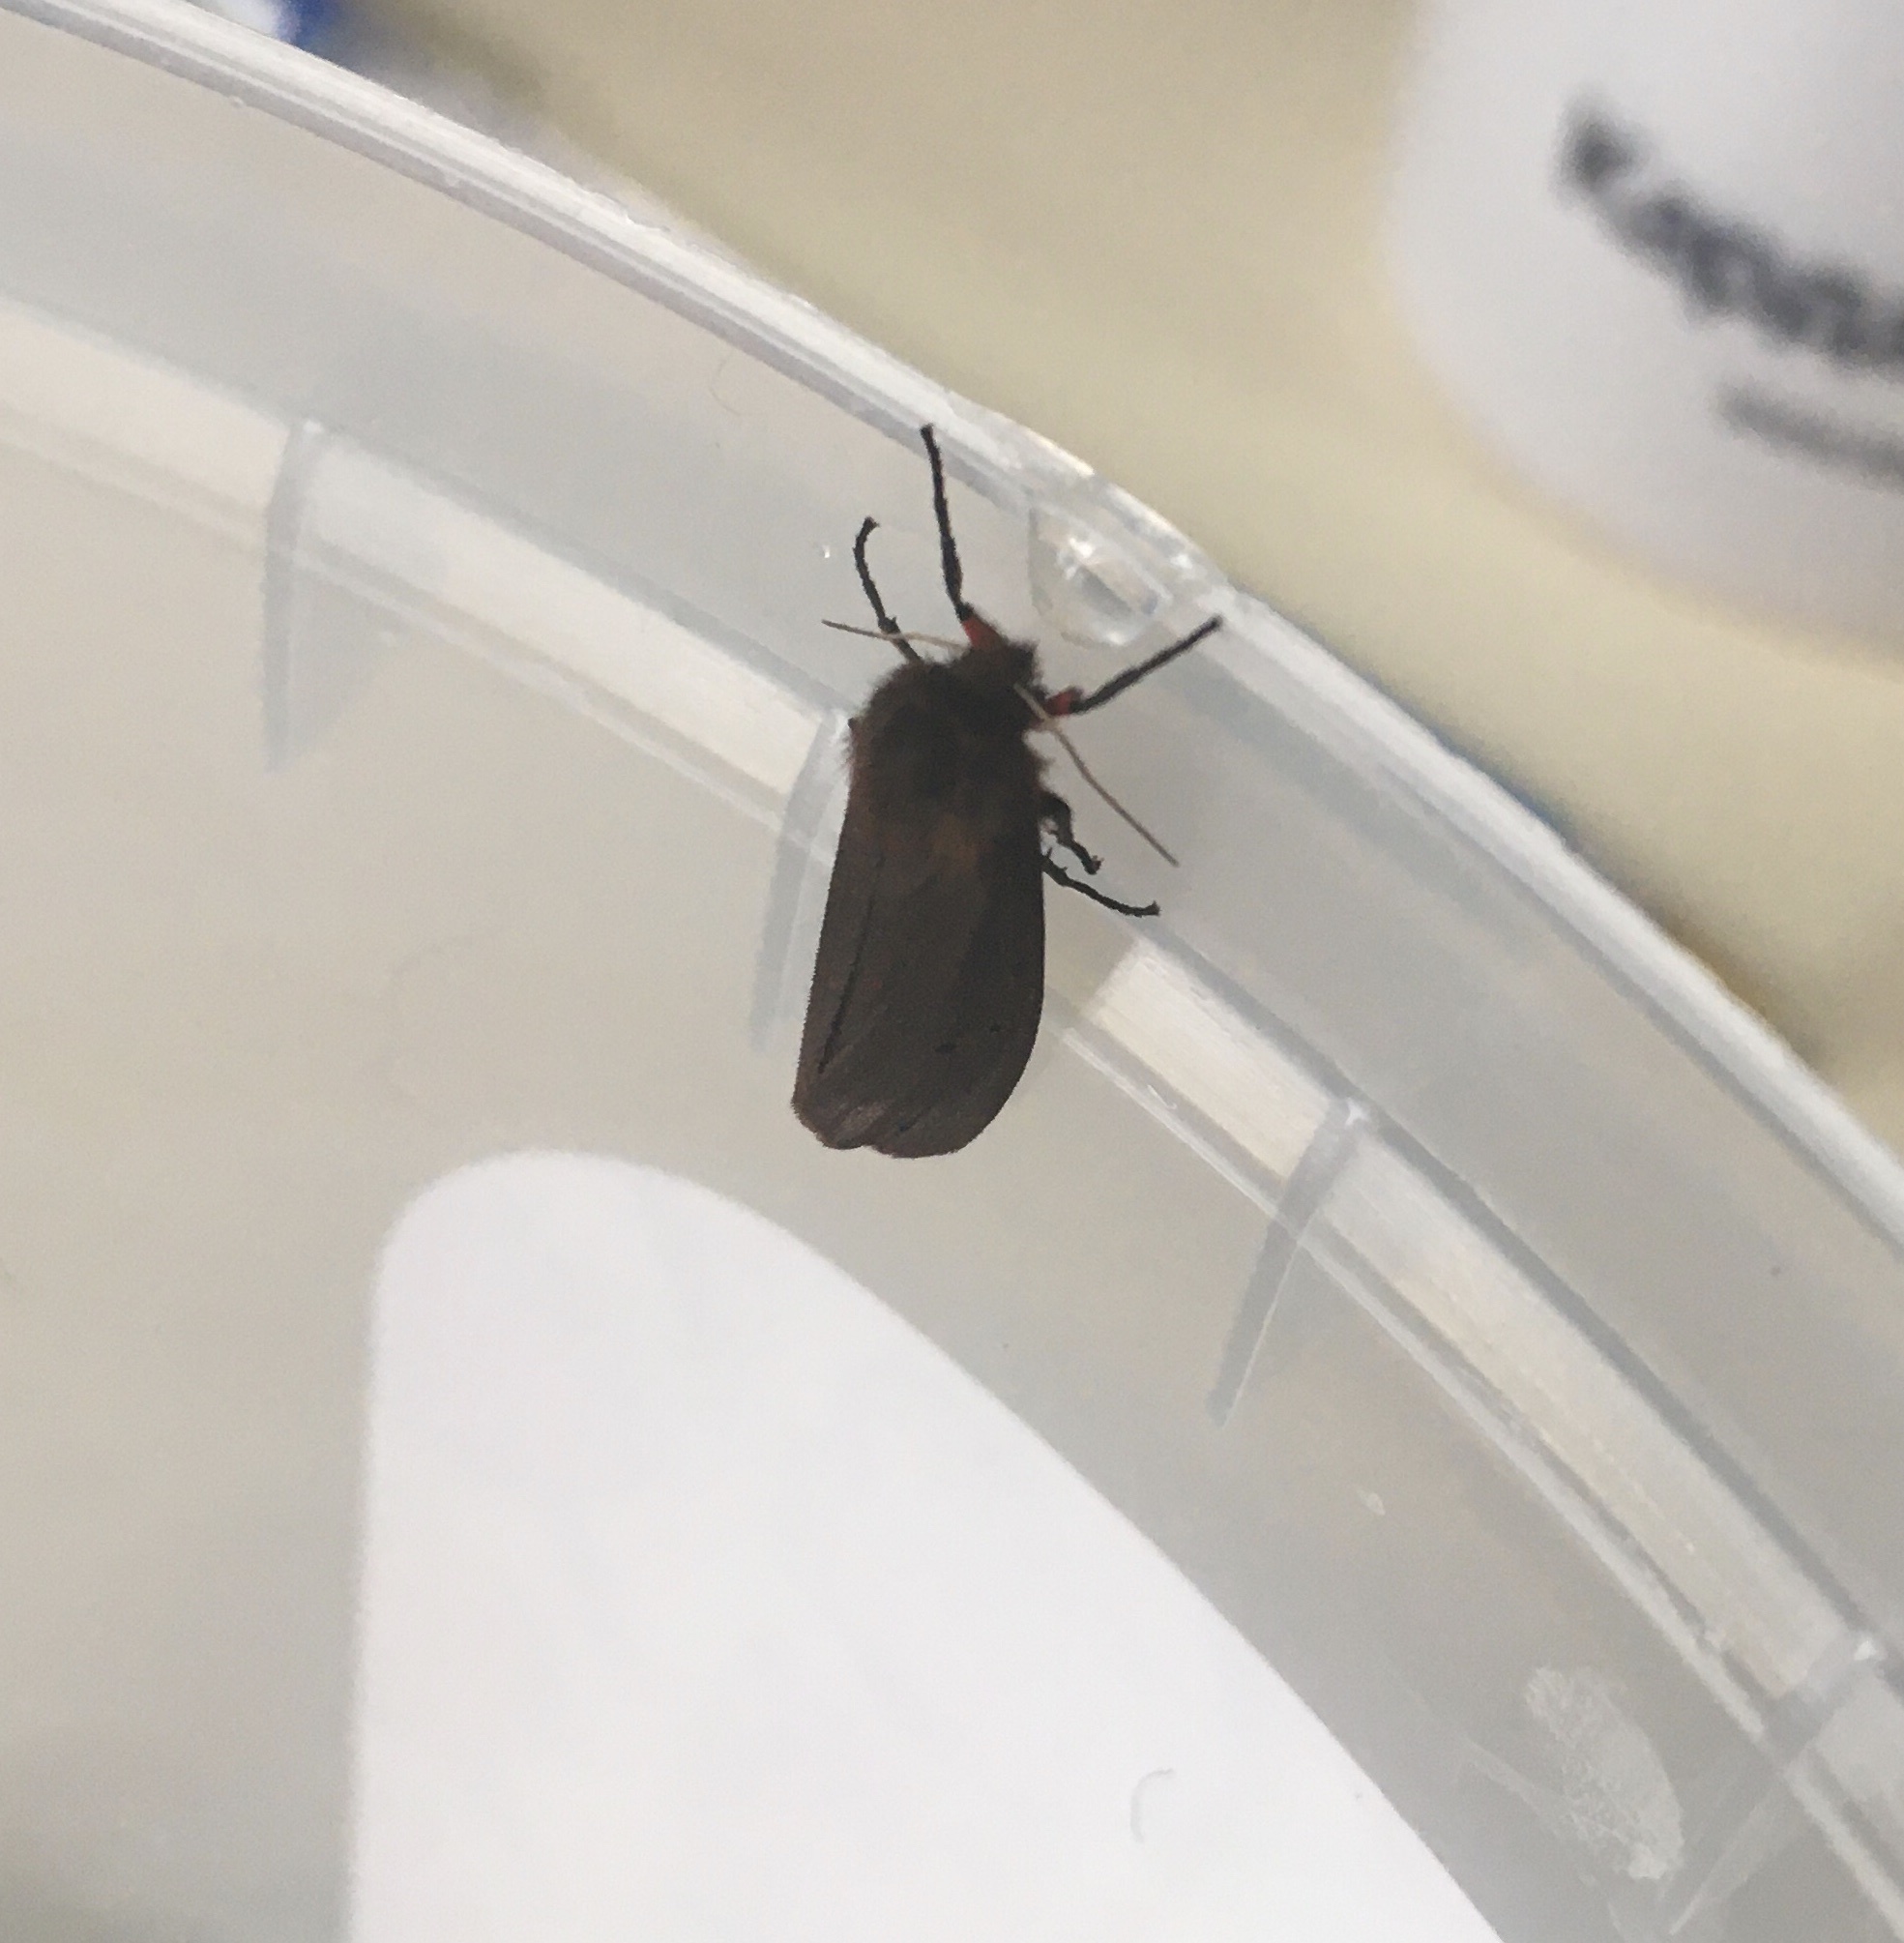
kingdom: Animalia
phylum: Arthropoda
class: Insecta
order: Lepidoptera
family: Erebidae
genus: Phragmatobia
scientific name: Phragmatobia fuliginosa
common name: Ruby tiger
